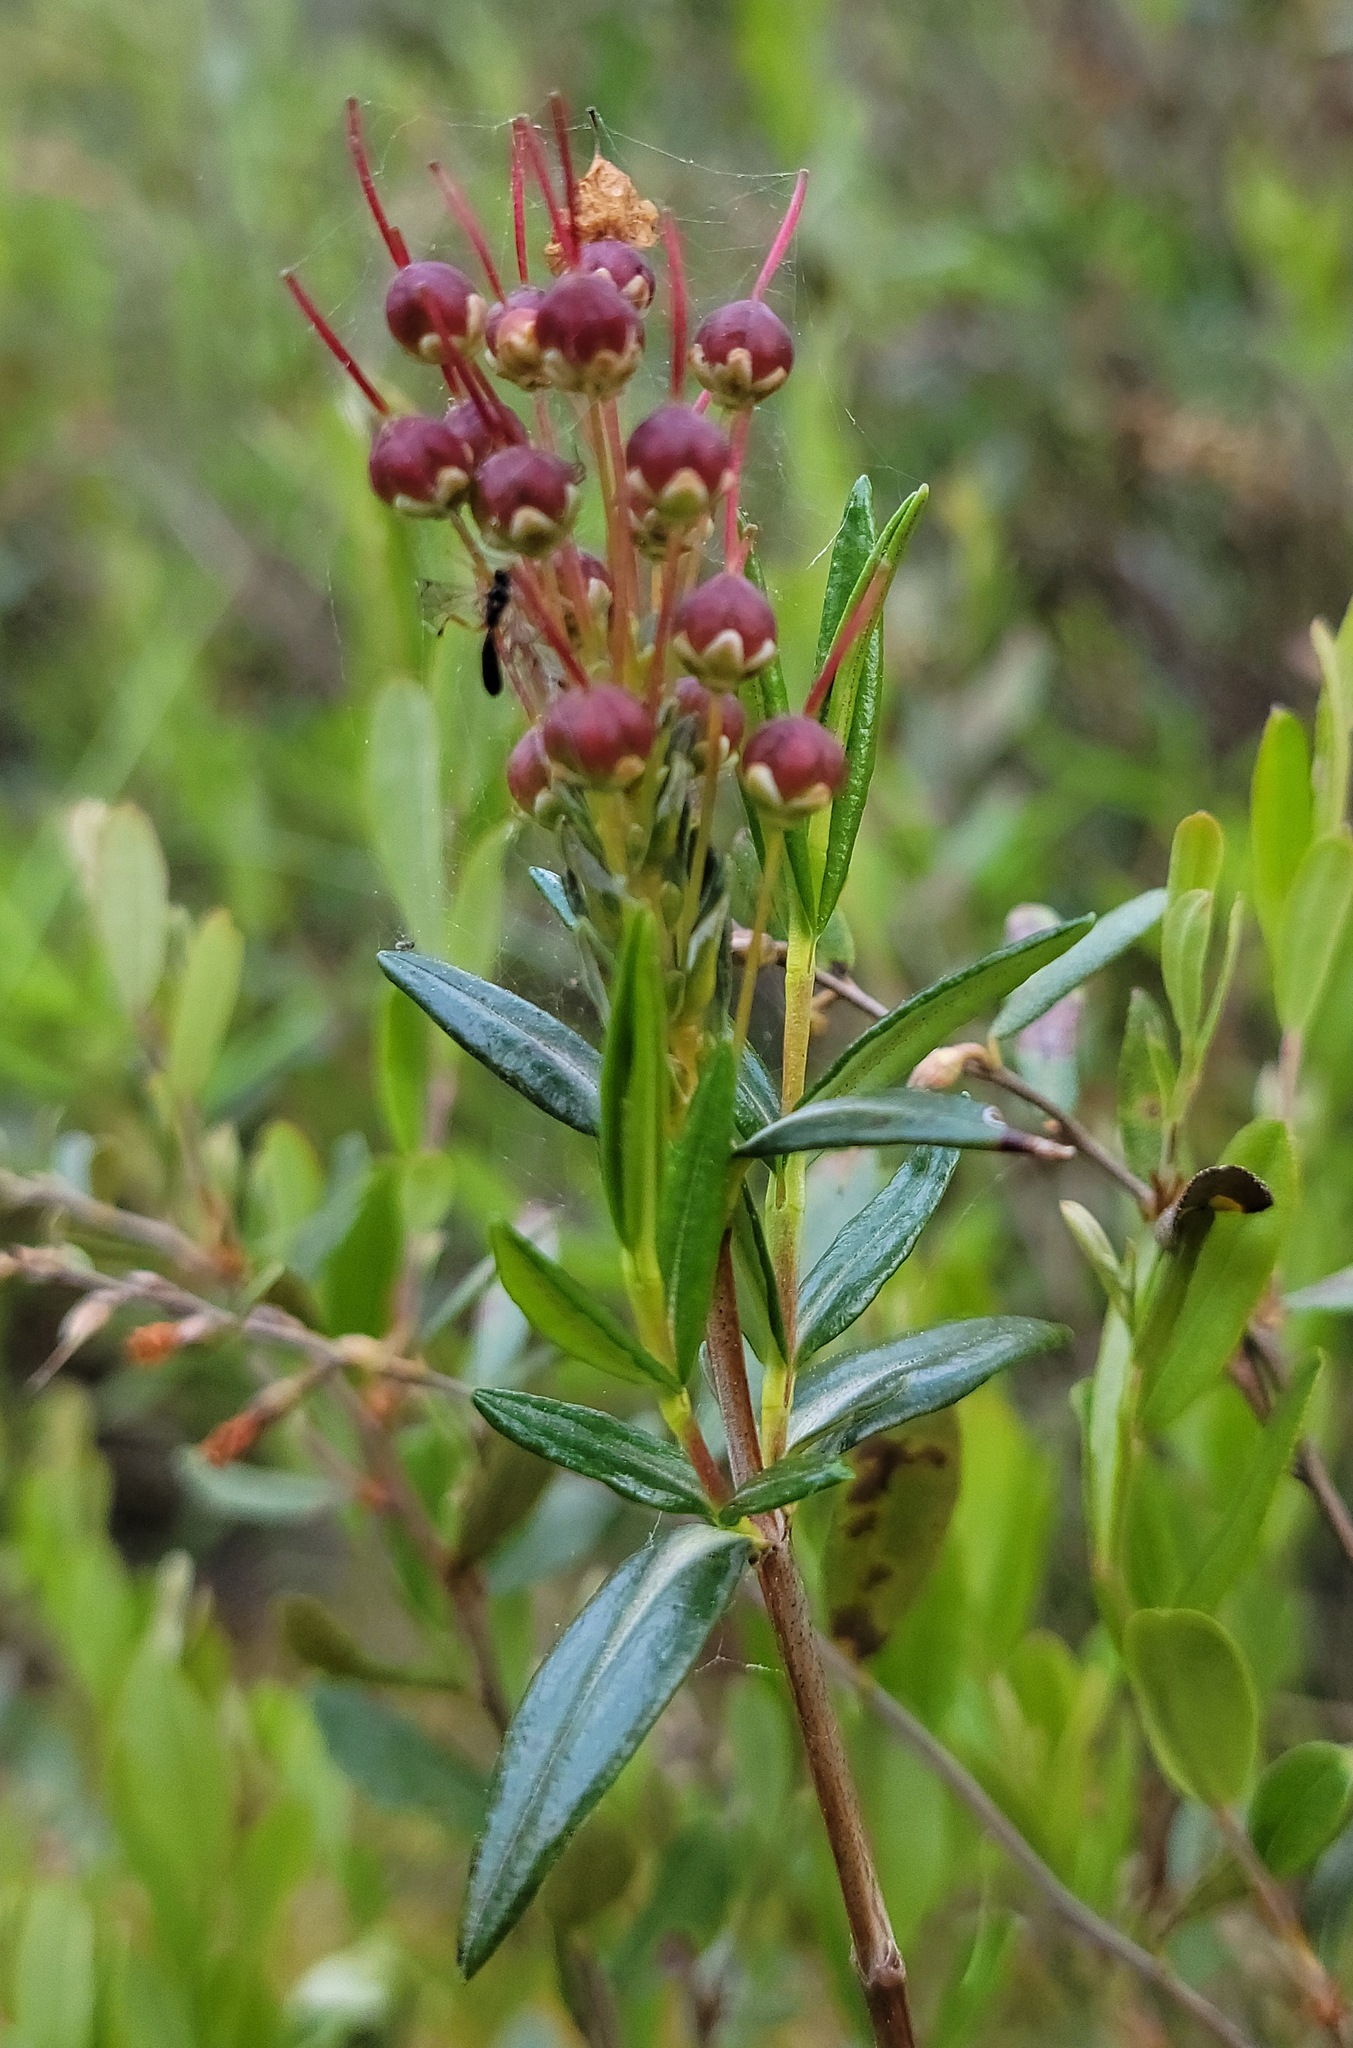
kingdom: Plantae
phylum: Tracheophyta
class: Magnoliopsida
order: Ericales
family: Ericaceae
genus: Kalmia
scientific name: Kalmia polifolia
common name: Bog-laurel
